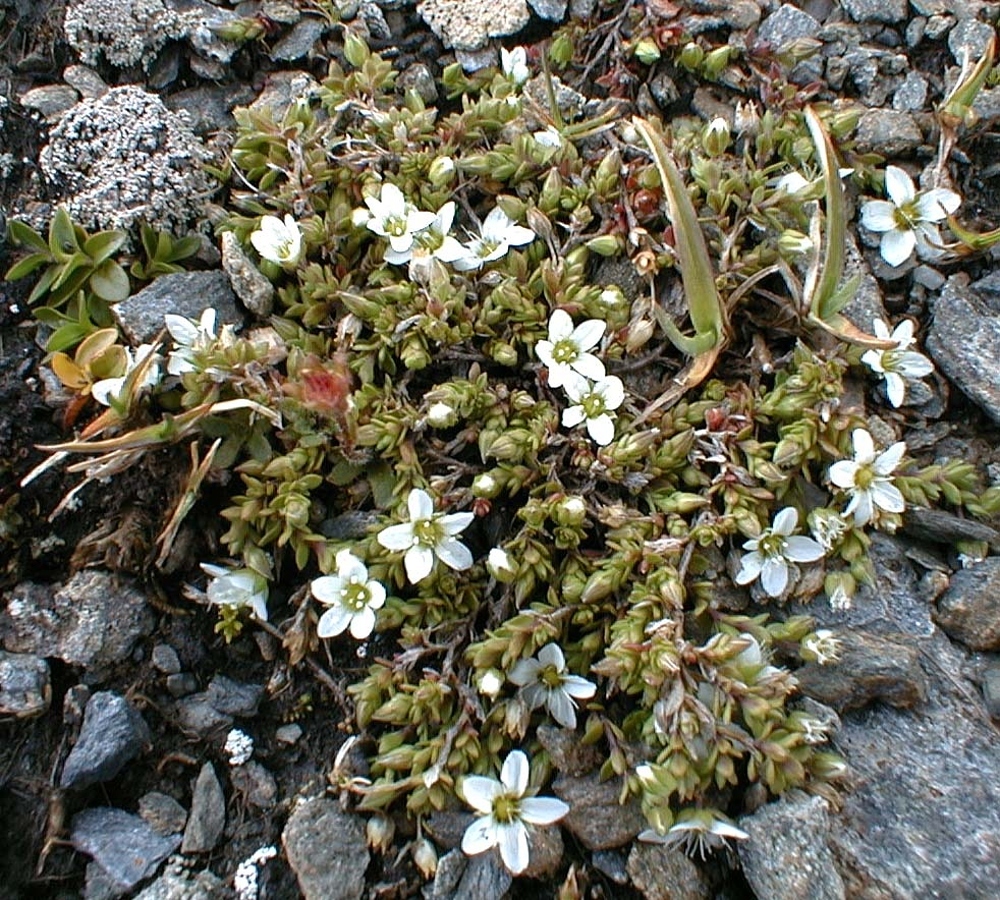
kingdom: Plantae
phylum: Tracheophyta
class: Magnoliopsida
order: Caryophyllales
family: Caryophyllaceae
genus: Arenaria
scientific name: Arenaria ciliata
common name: Fringed sandwort
